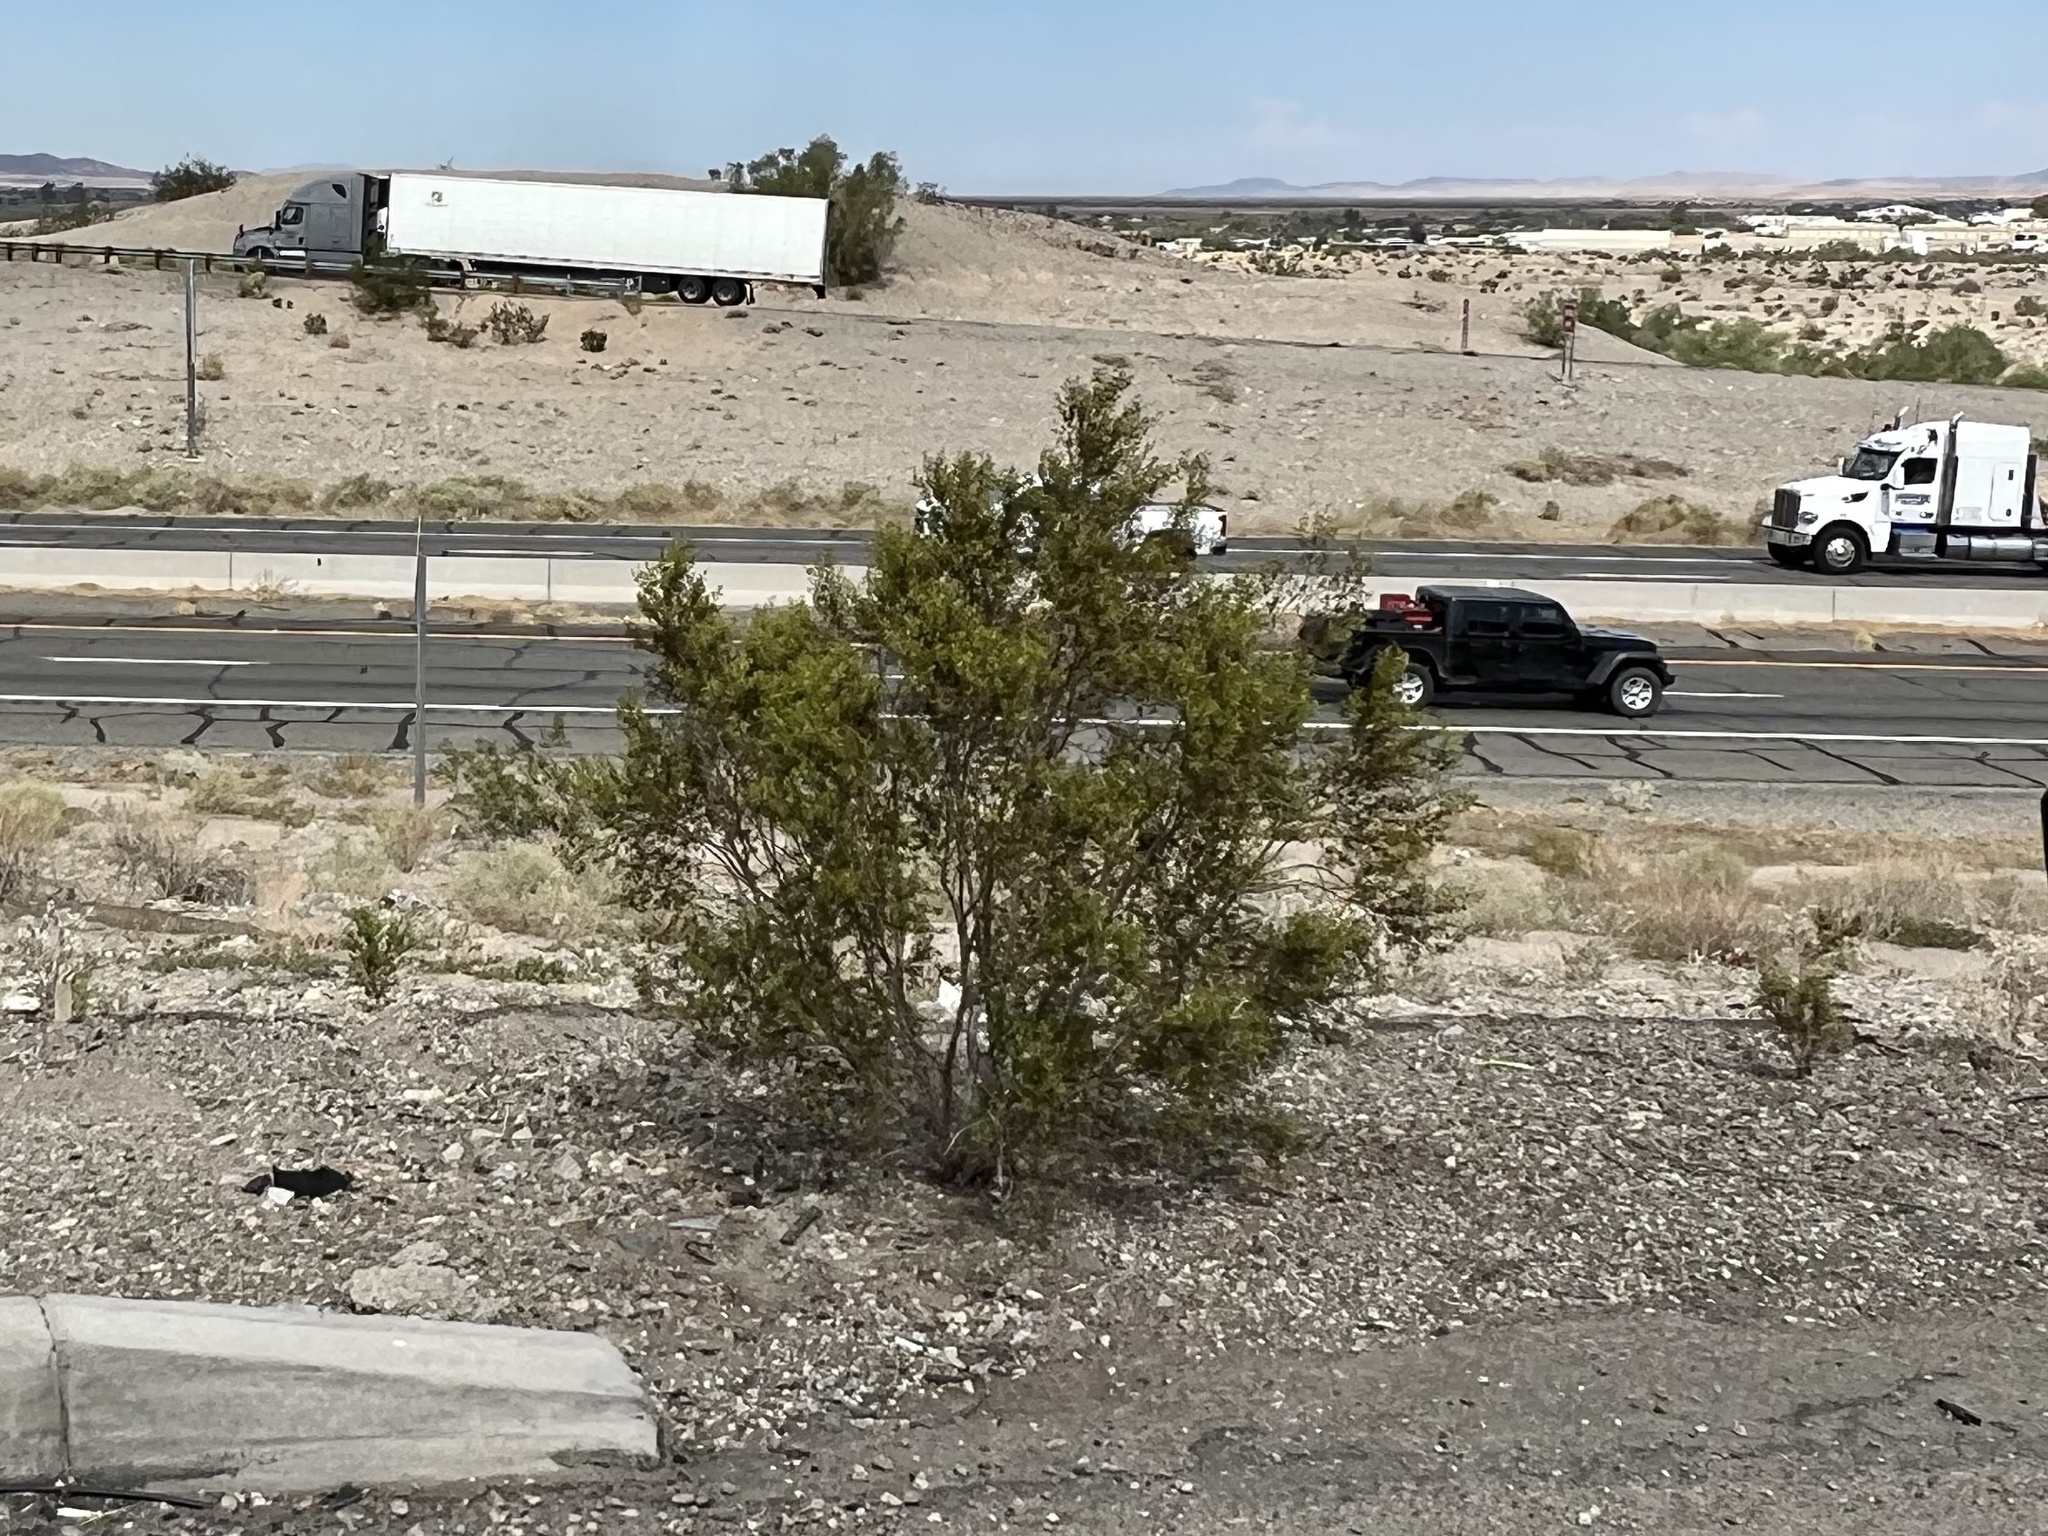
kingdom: Plantae
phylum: Tracheophyta
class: Magnoliopsida
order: Zygophyllales
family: Zygophyllaceae
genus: Larrea
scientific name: Larrea tridentata
